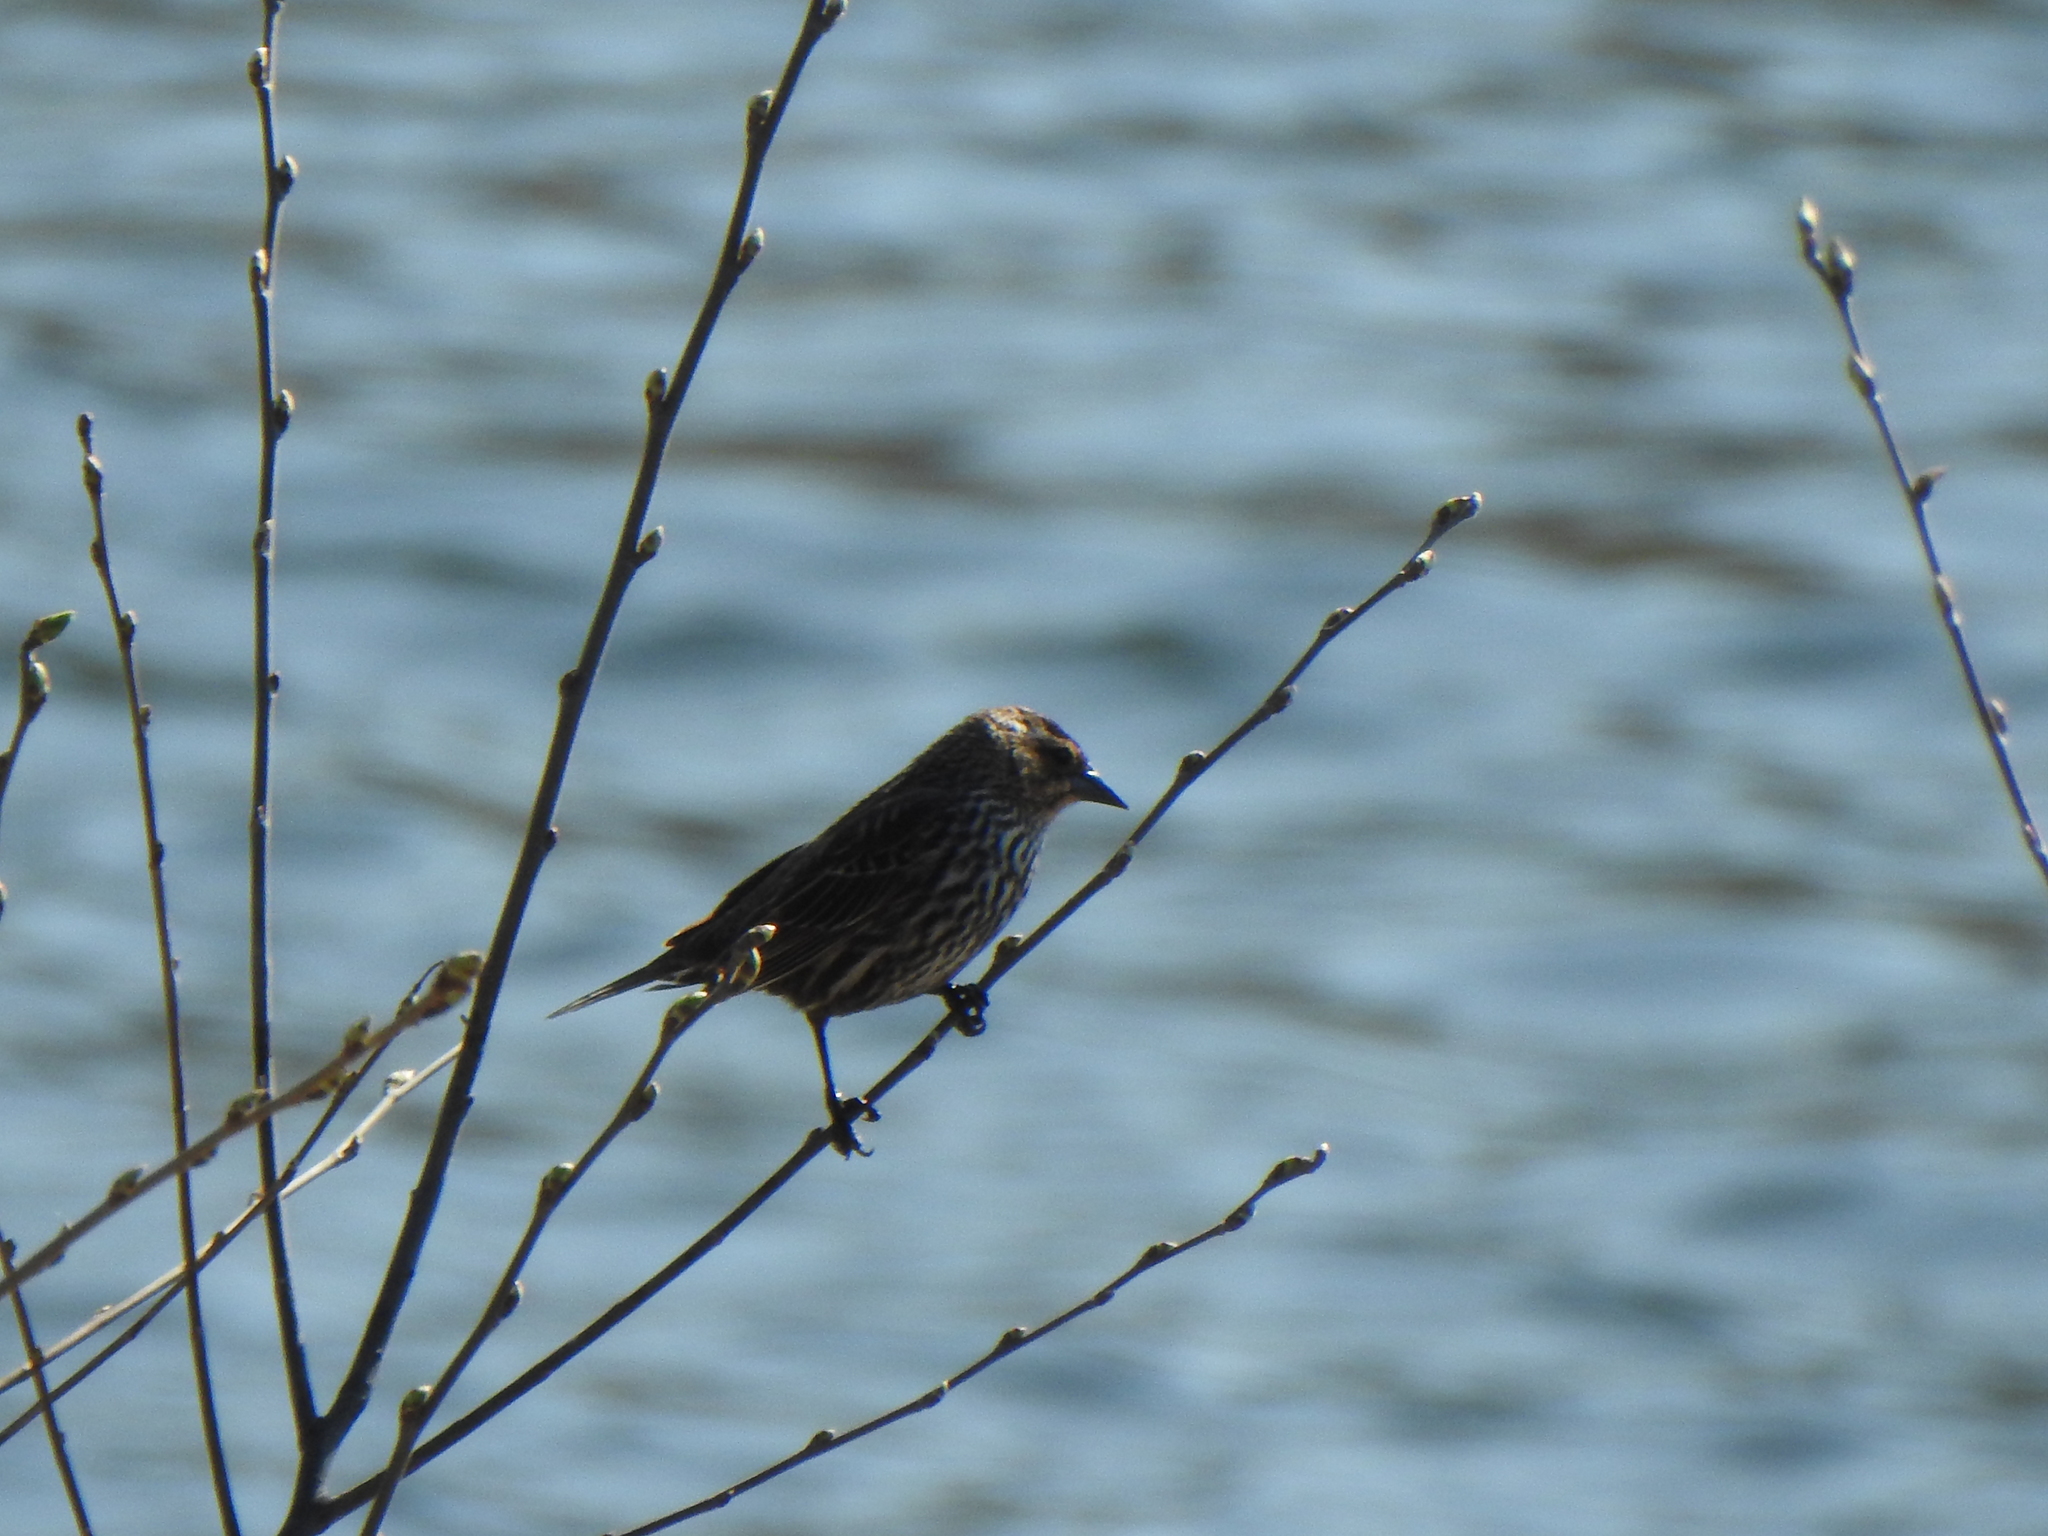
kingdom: Animalia
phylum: Chordata
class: Aves
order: Passeriformes
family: Icteridae
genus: Agelaius
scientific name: Agelaius phoeniceus
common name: Red-winged blackbird
